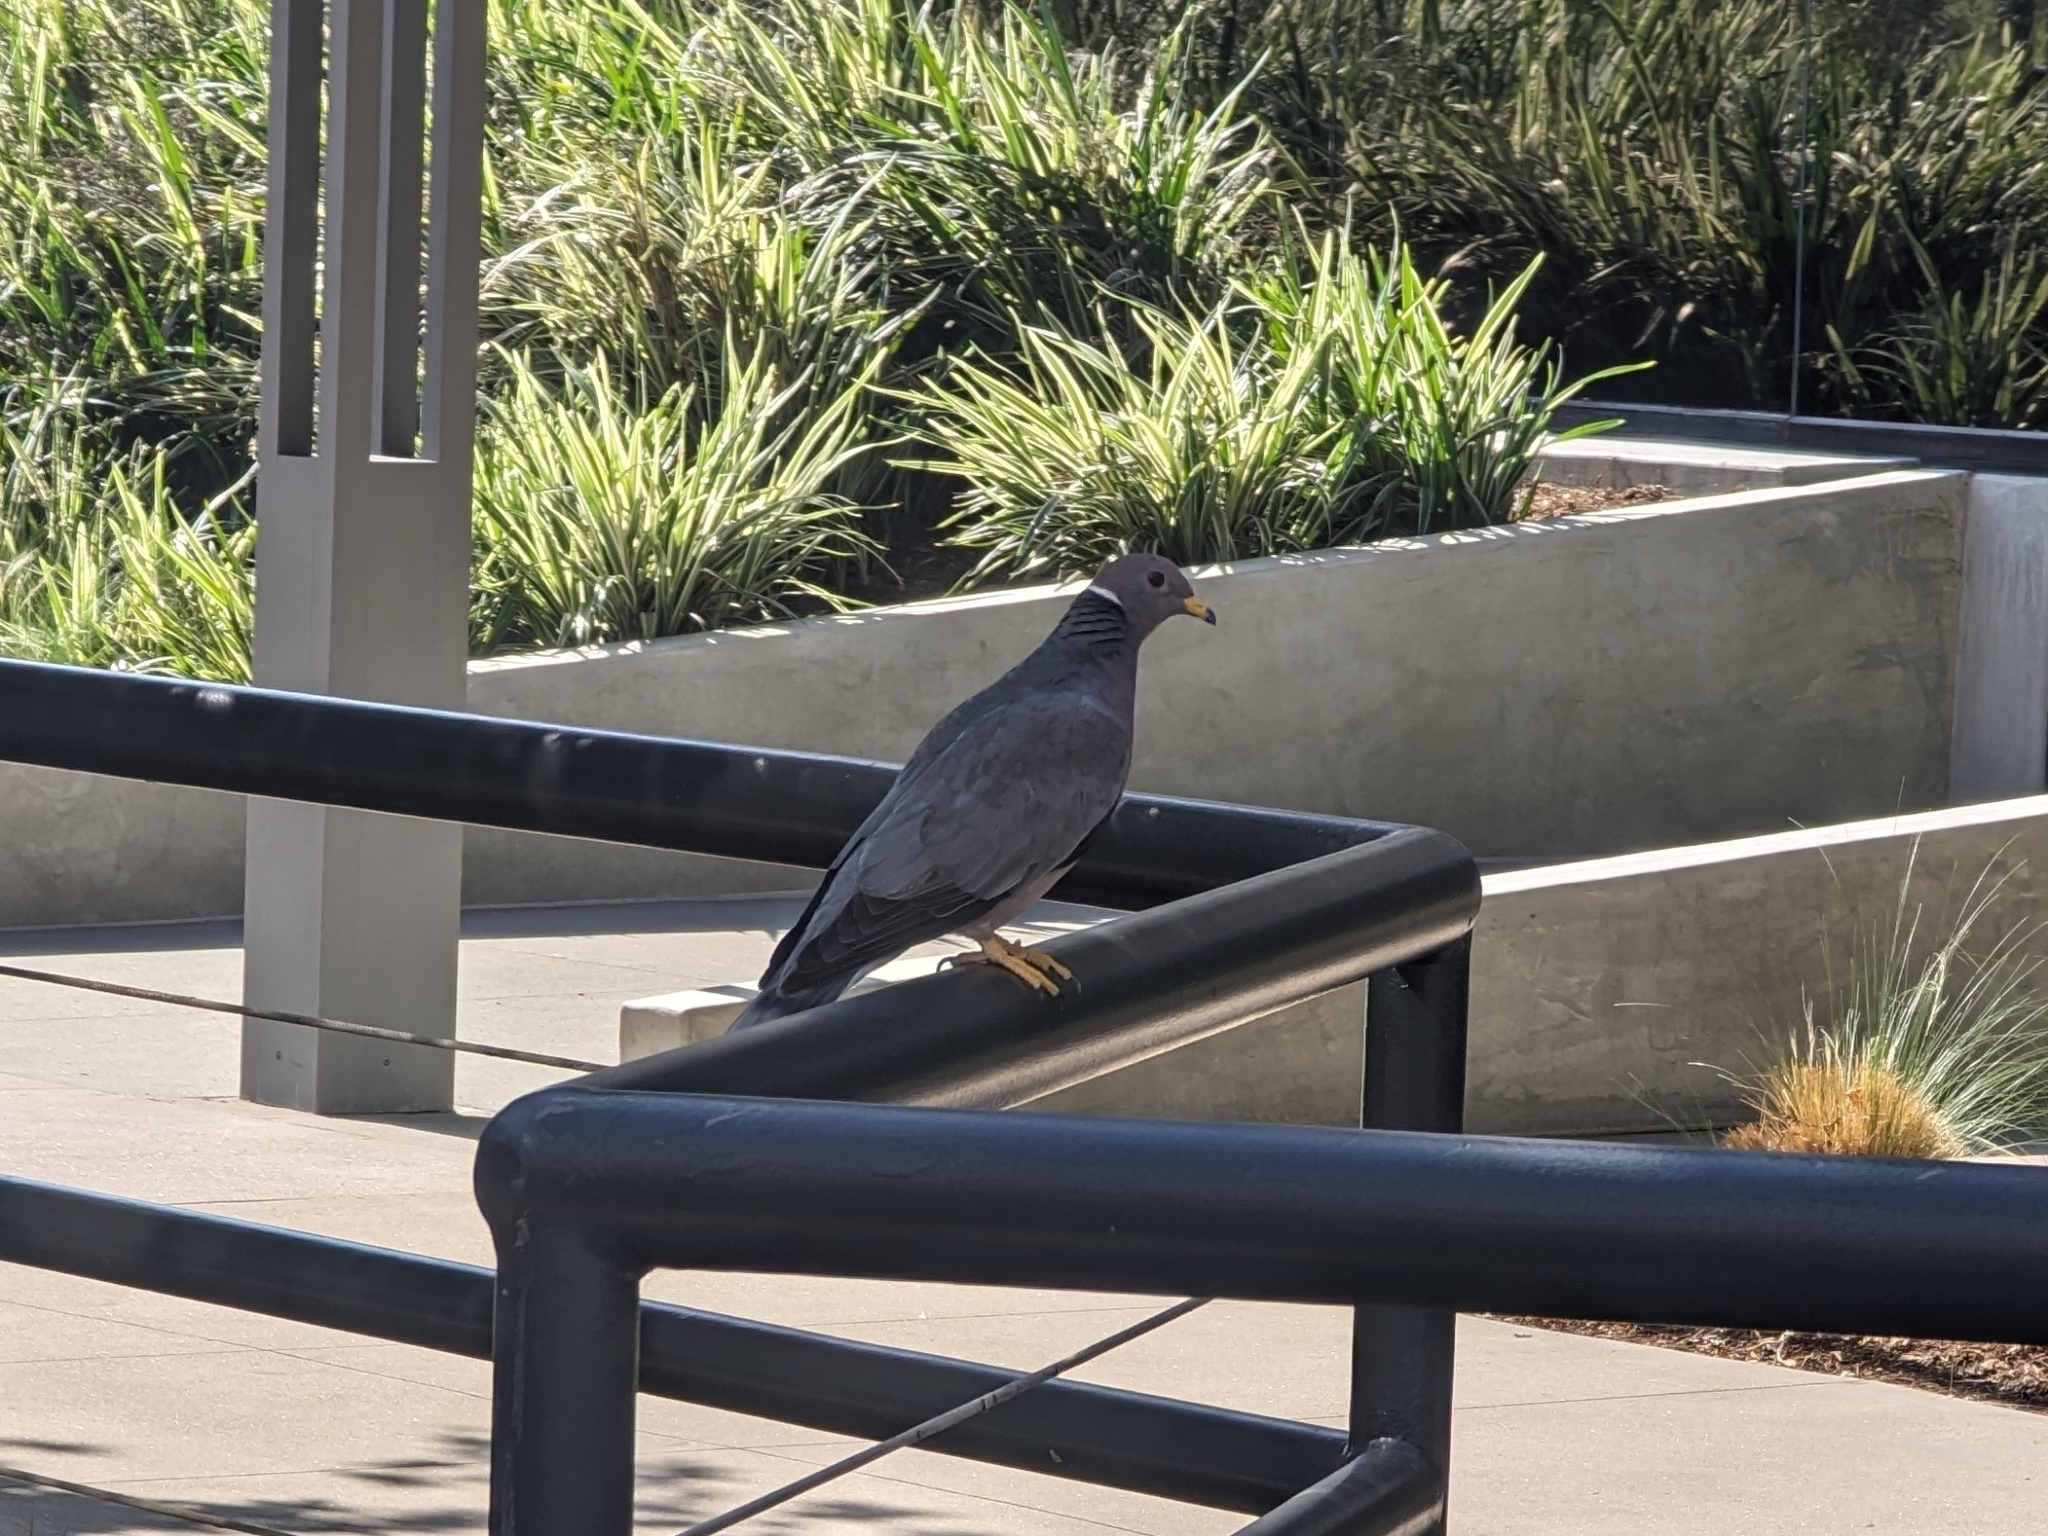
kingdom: Animalia
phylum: Chordata
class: Aves
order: Columbiformes
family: Columbidae
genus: Patagioenas
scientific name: Patagioenas fasciata
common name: Band-tailed pigeon
